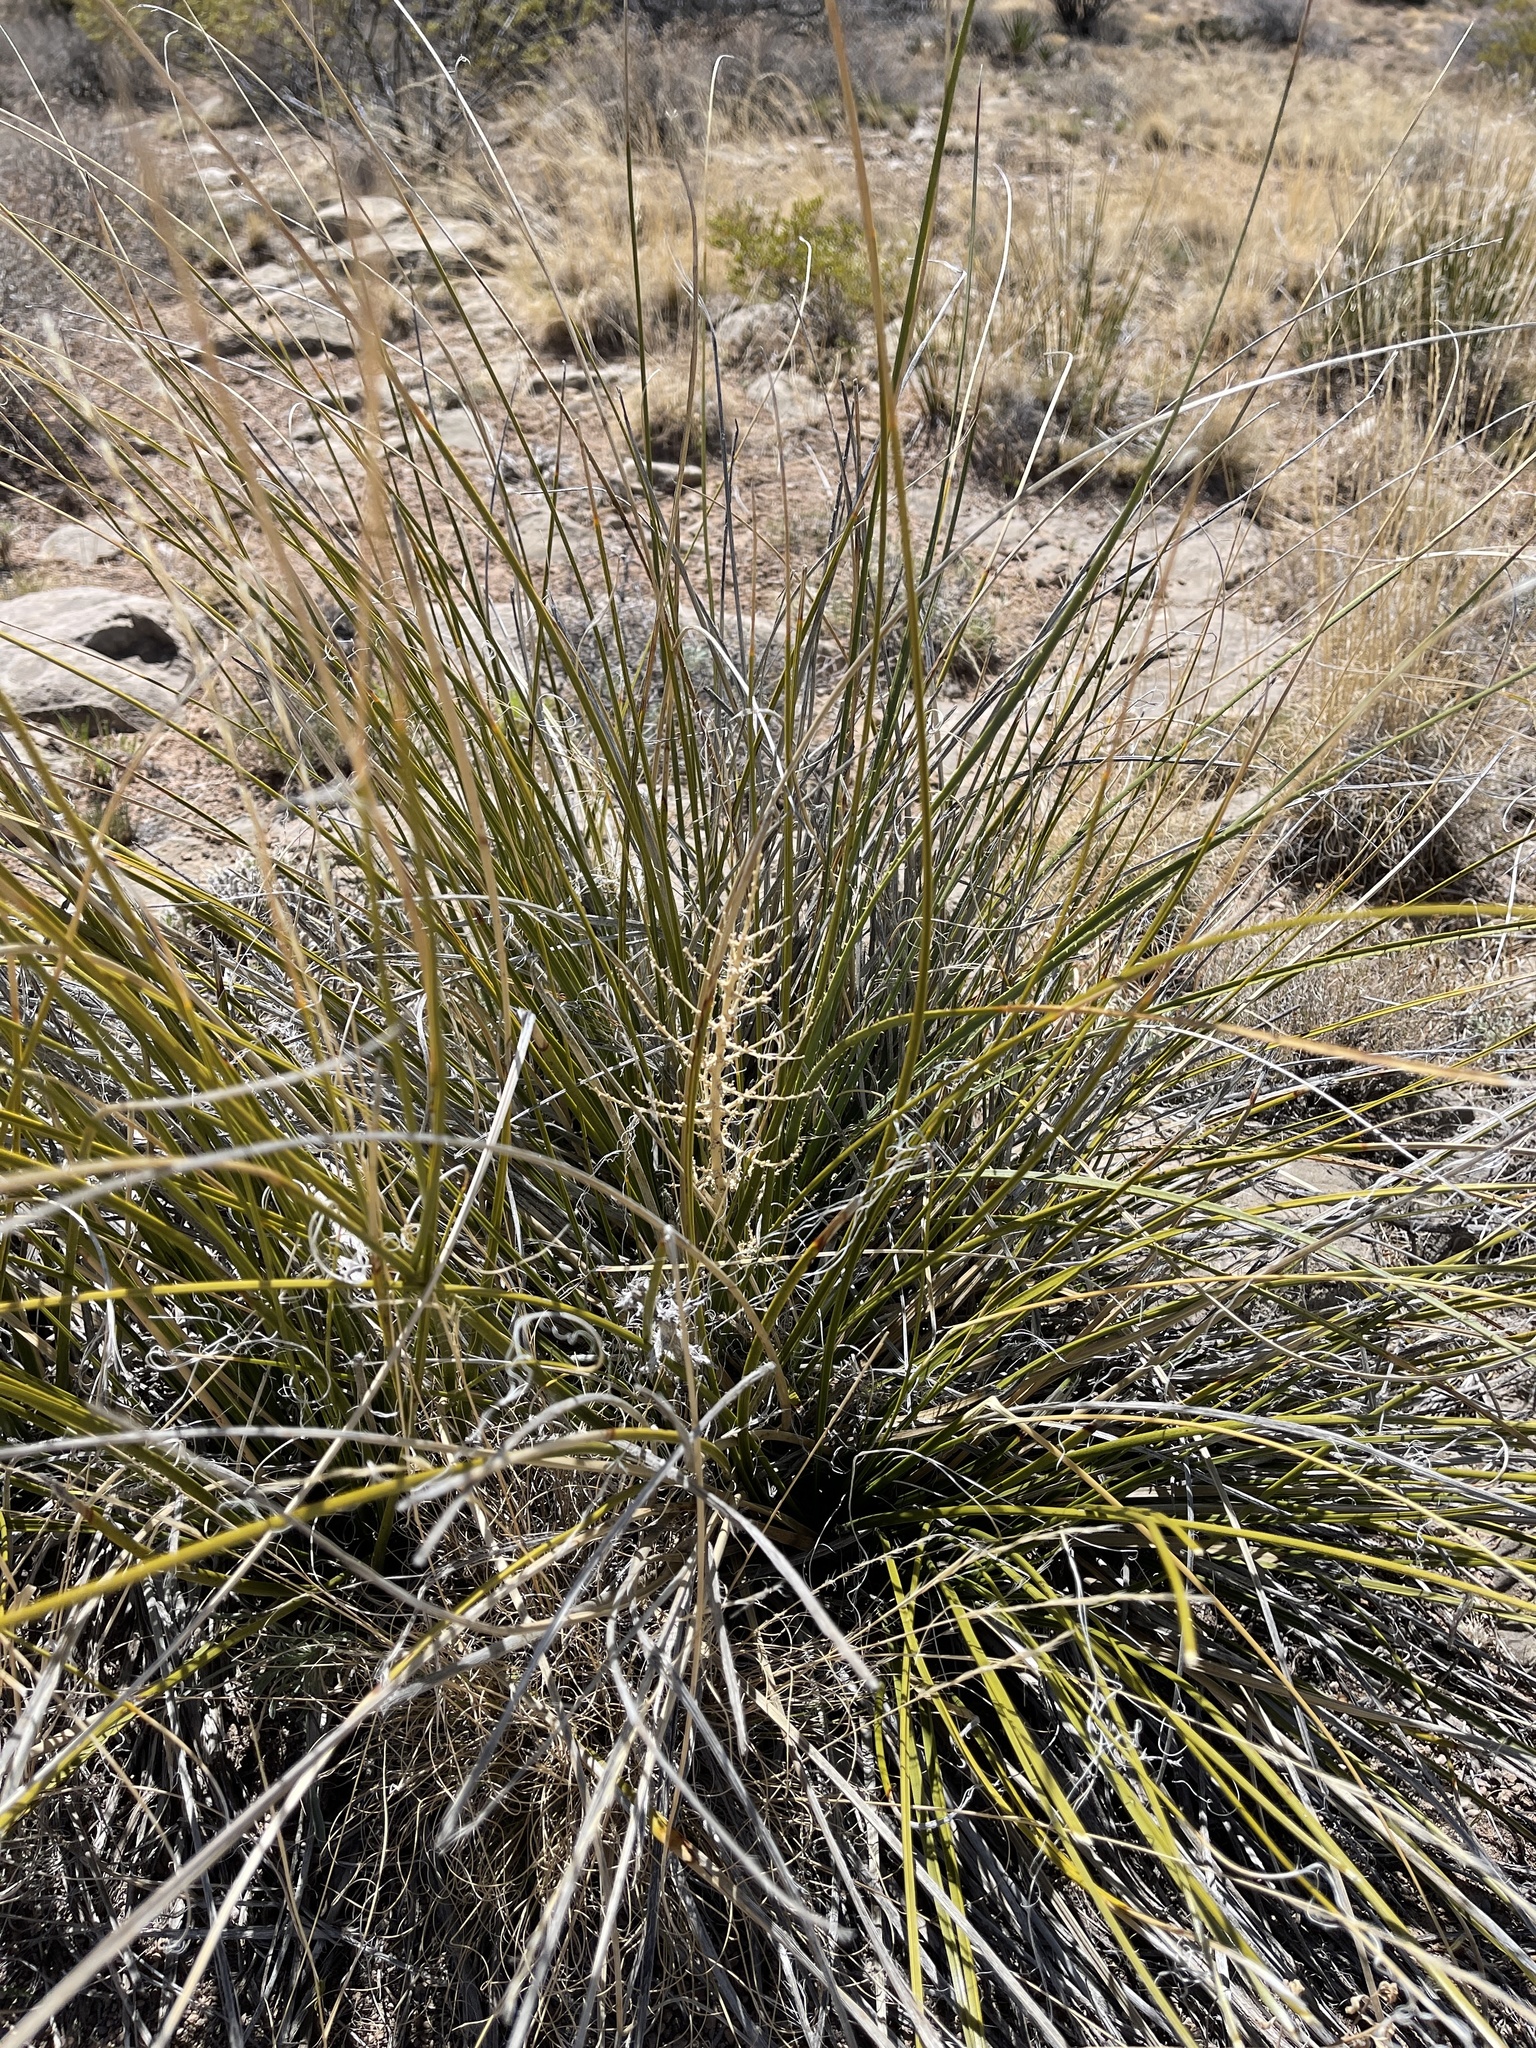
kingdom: Plantae
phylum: Tracheophyta
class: Liliopsida
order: Asparagales
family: Asparagaceae
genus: Nolina
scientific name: Nolina microcarpa
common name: Bear-grass
